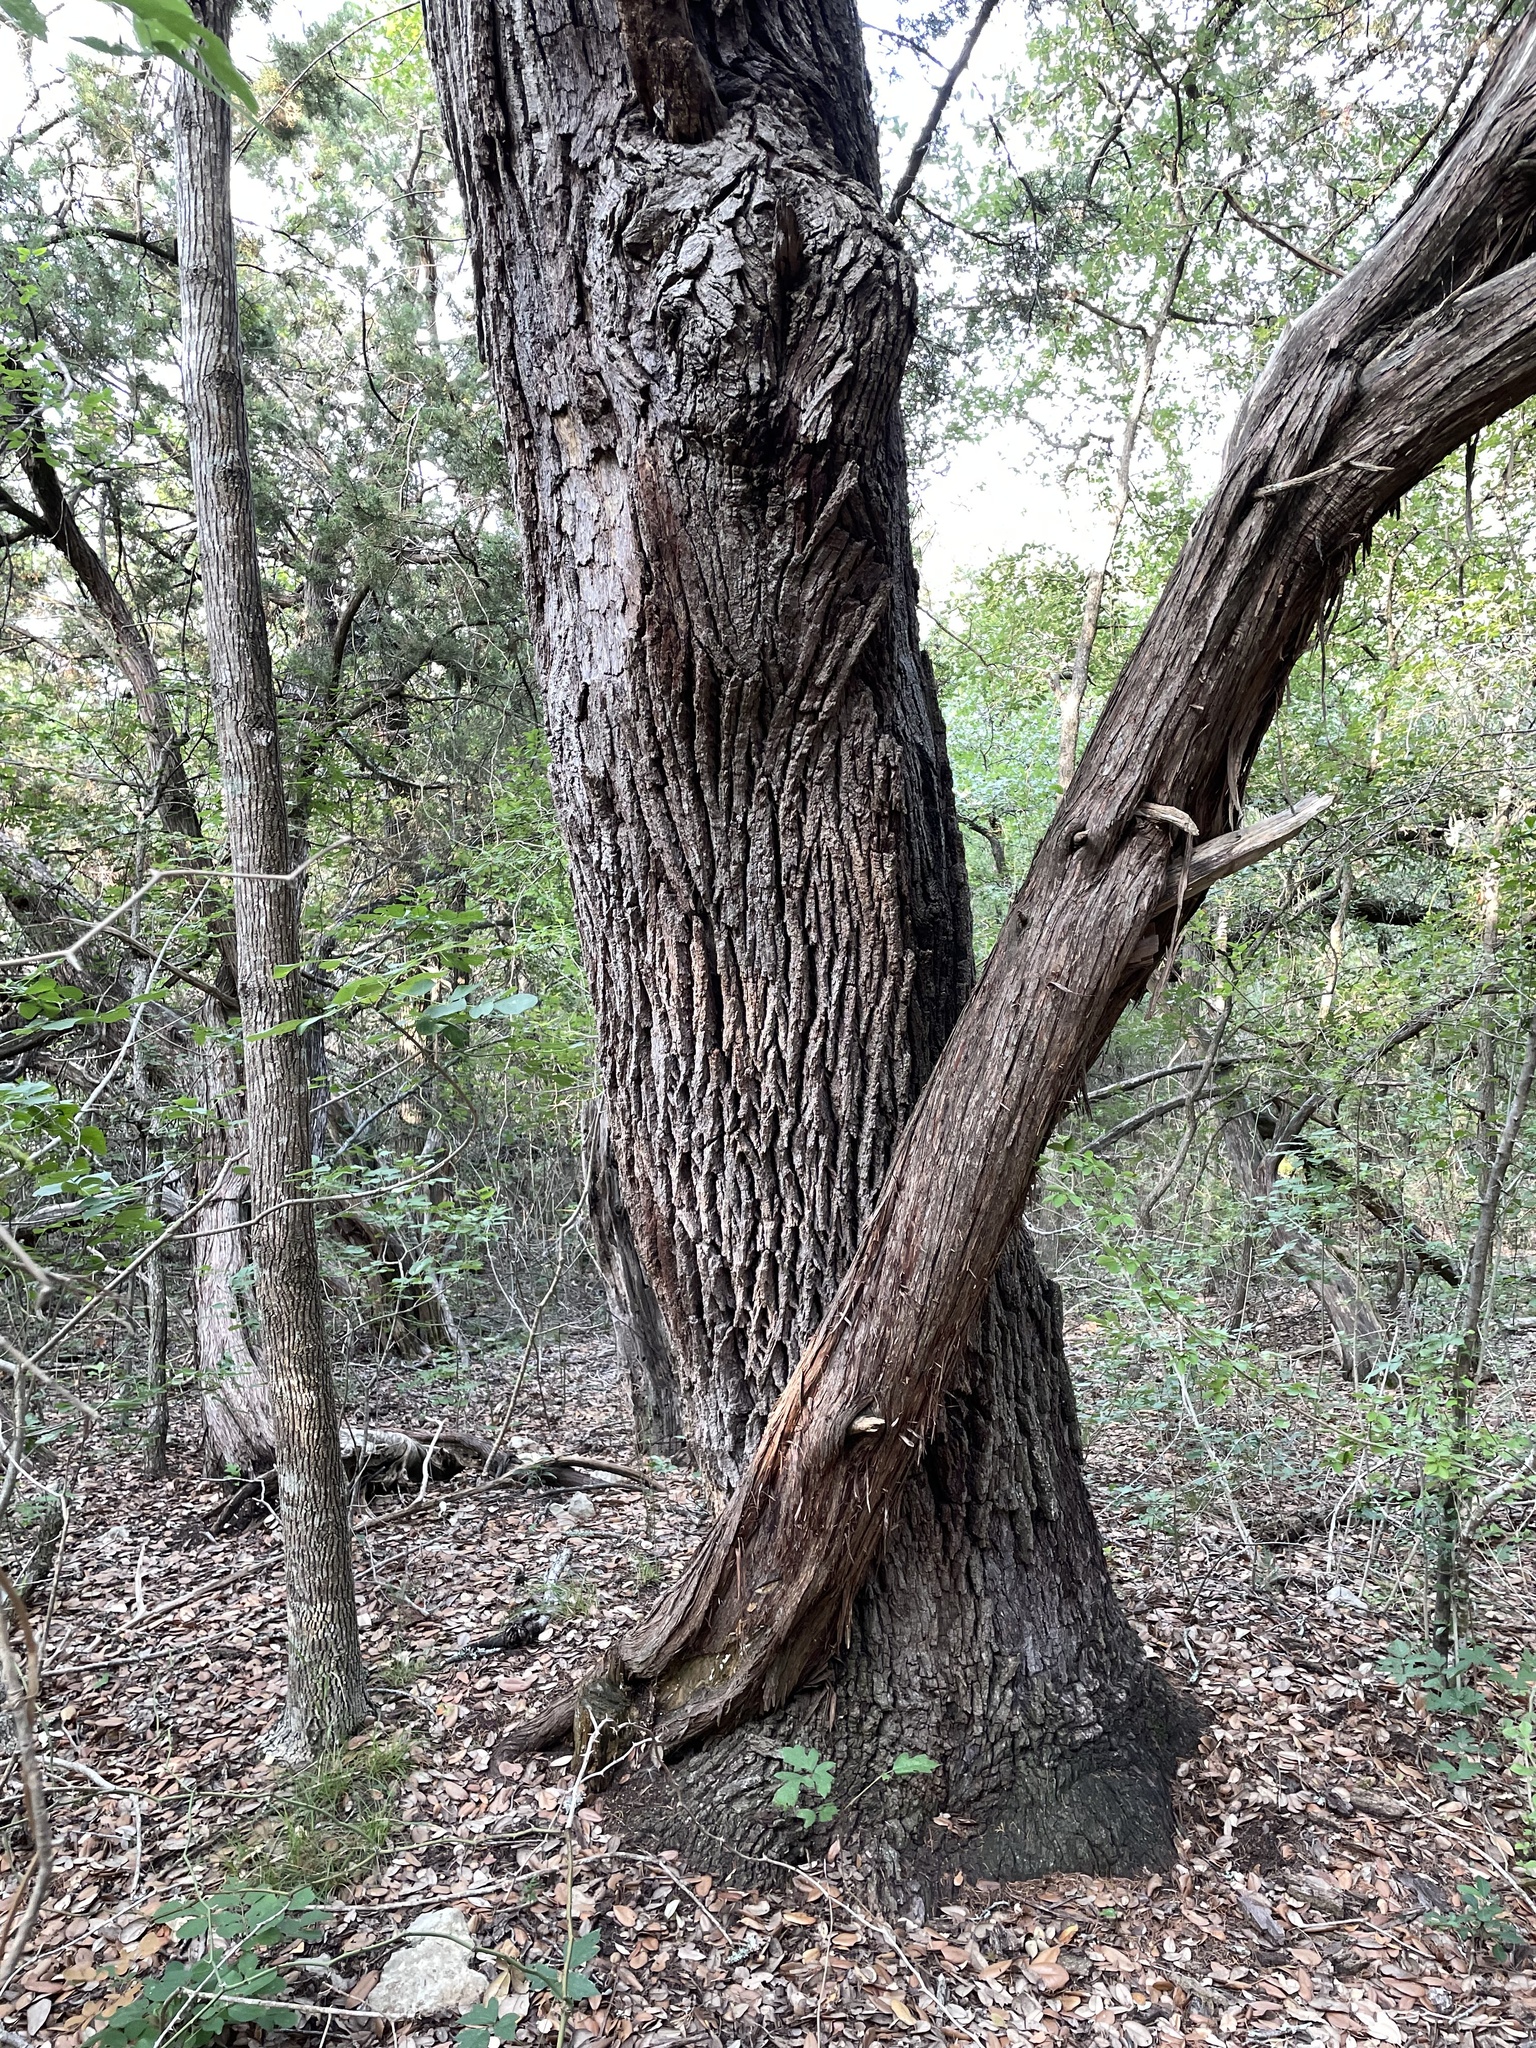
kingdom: Plantae
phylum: Tracheophyta
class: Magnoliopsida
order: Fagales
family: Fagaceae
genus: Quercus
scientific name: Quercus fusiformis
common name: Texas live oak
